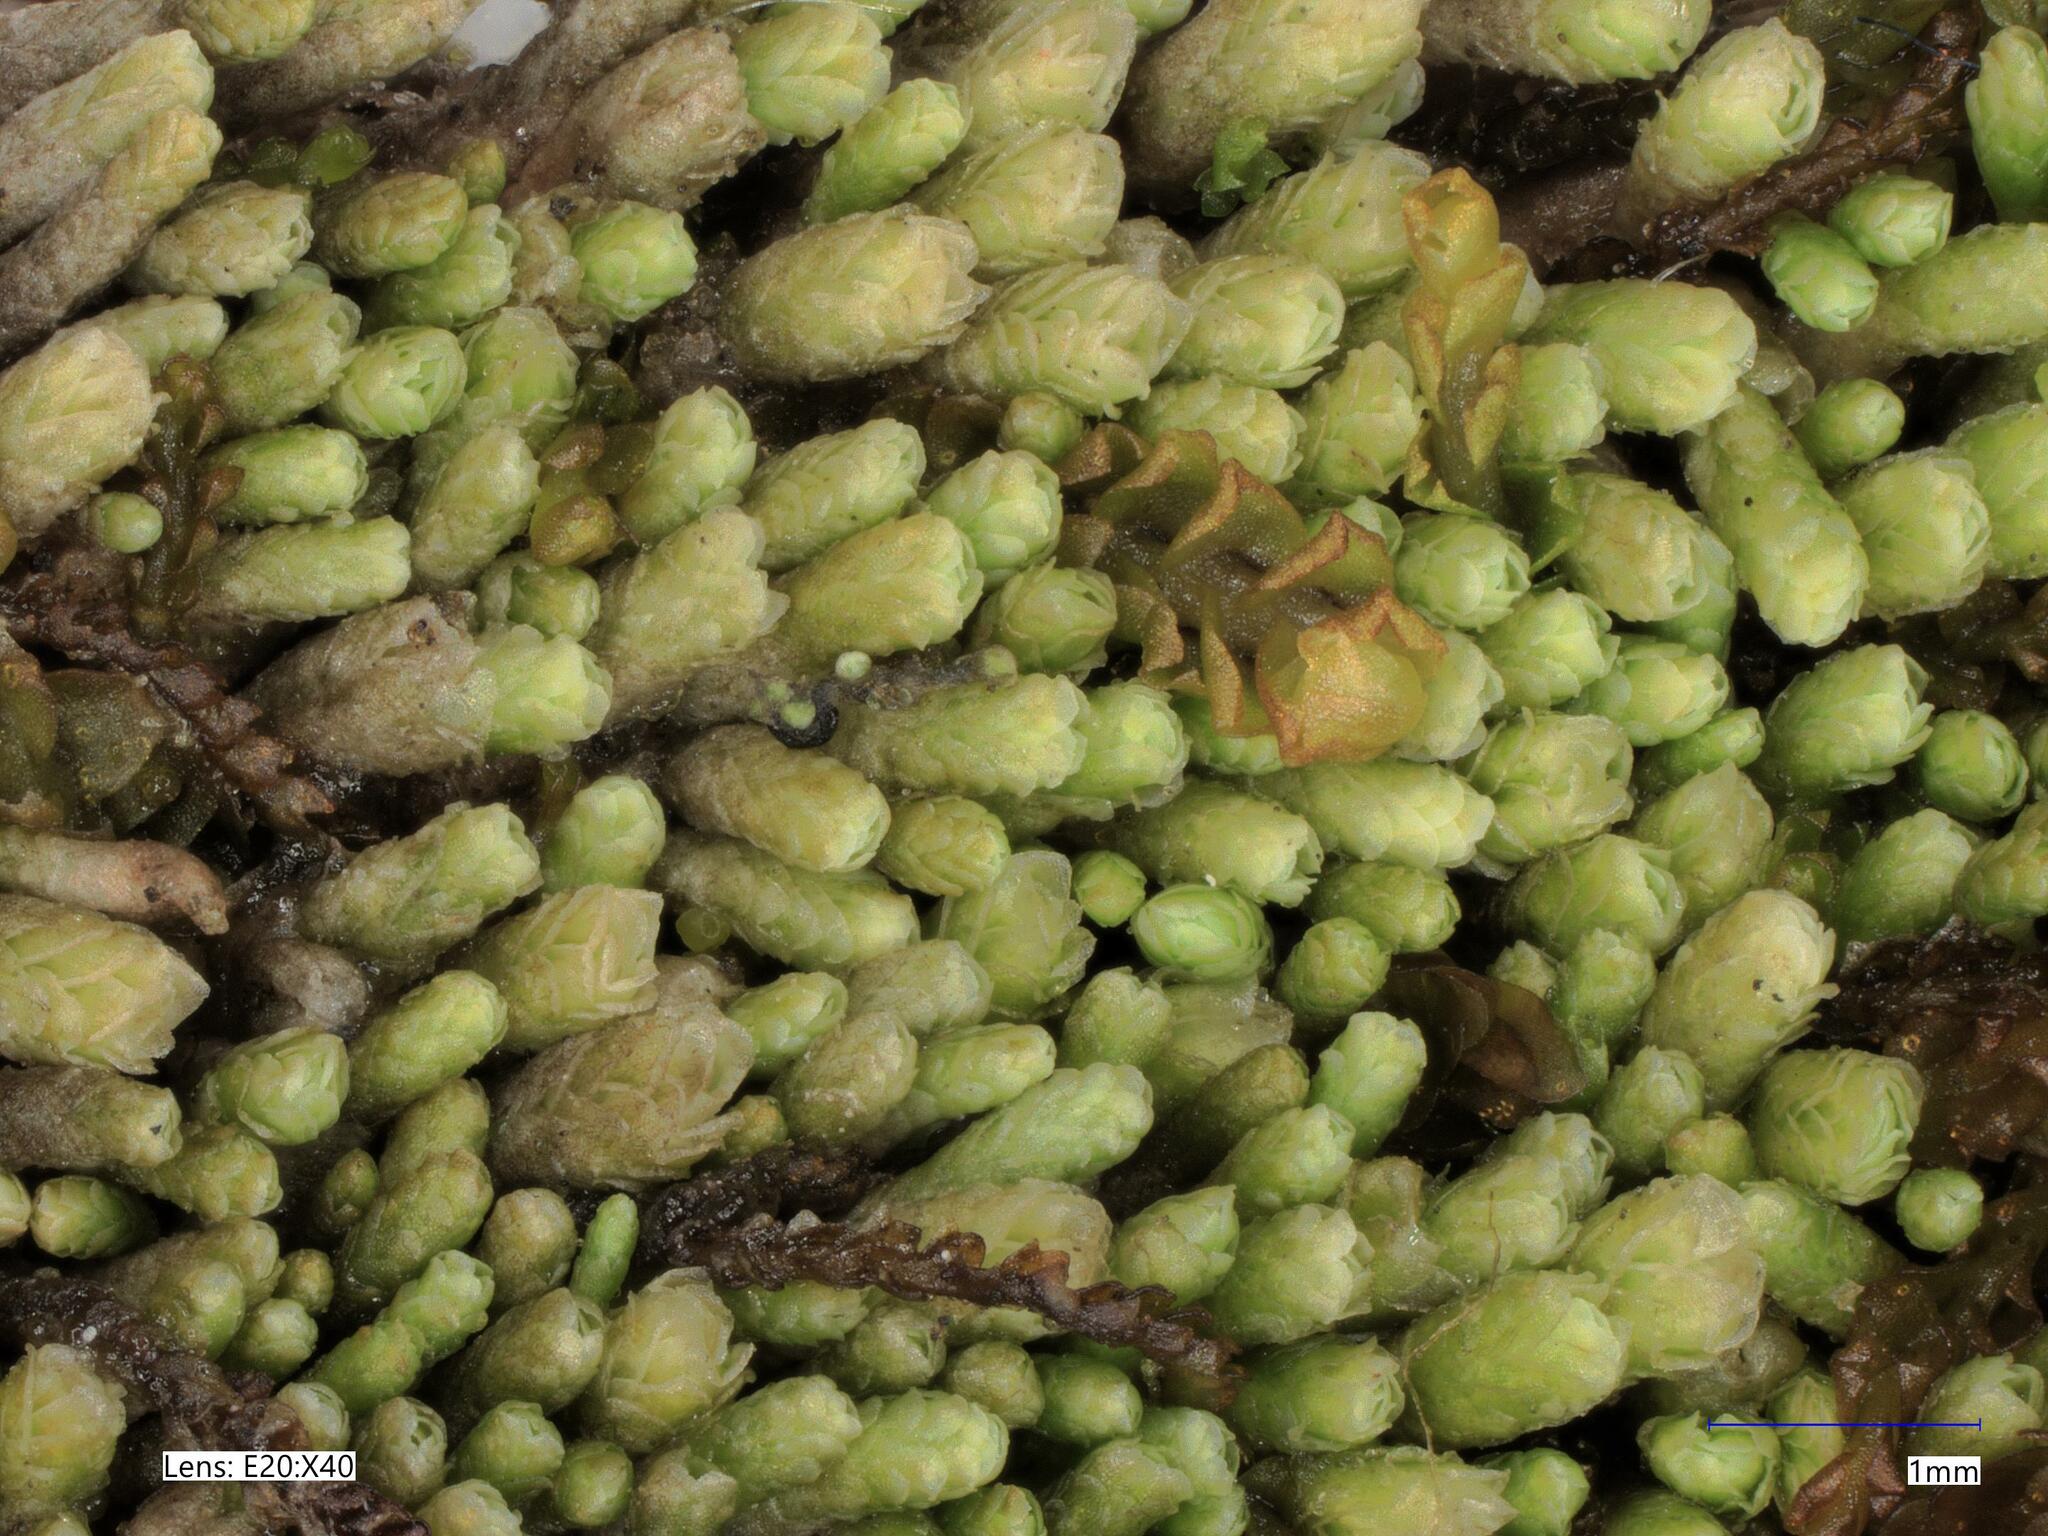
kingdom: Plantae
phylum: Marchantiophyta
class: Jungermanniopsida
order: Jungermanniales
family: Gymnomitriaceae
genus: Gymnomitrion
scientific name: Gymnomitrion obtusum
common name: White frostwort
